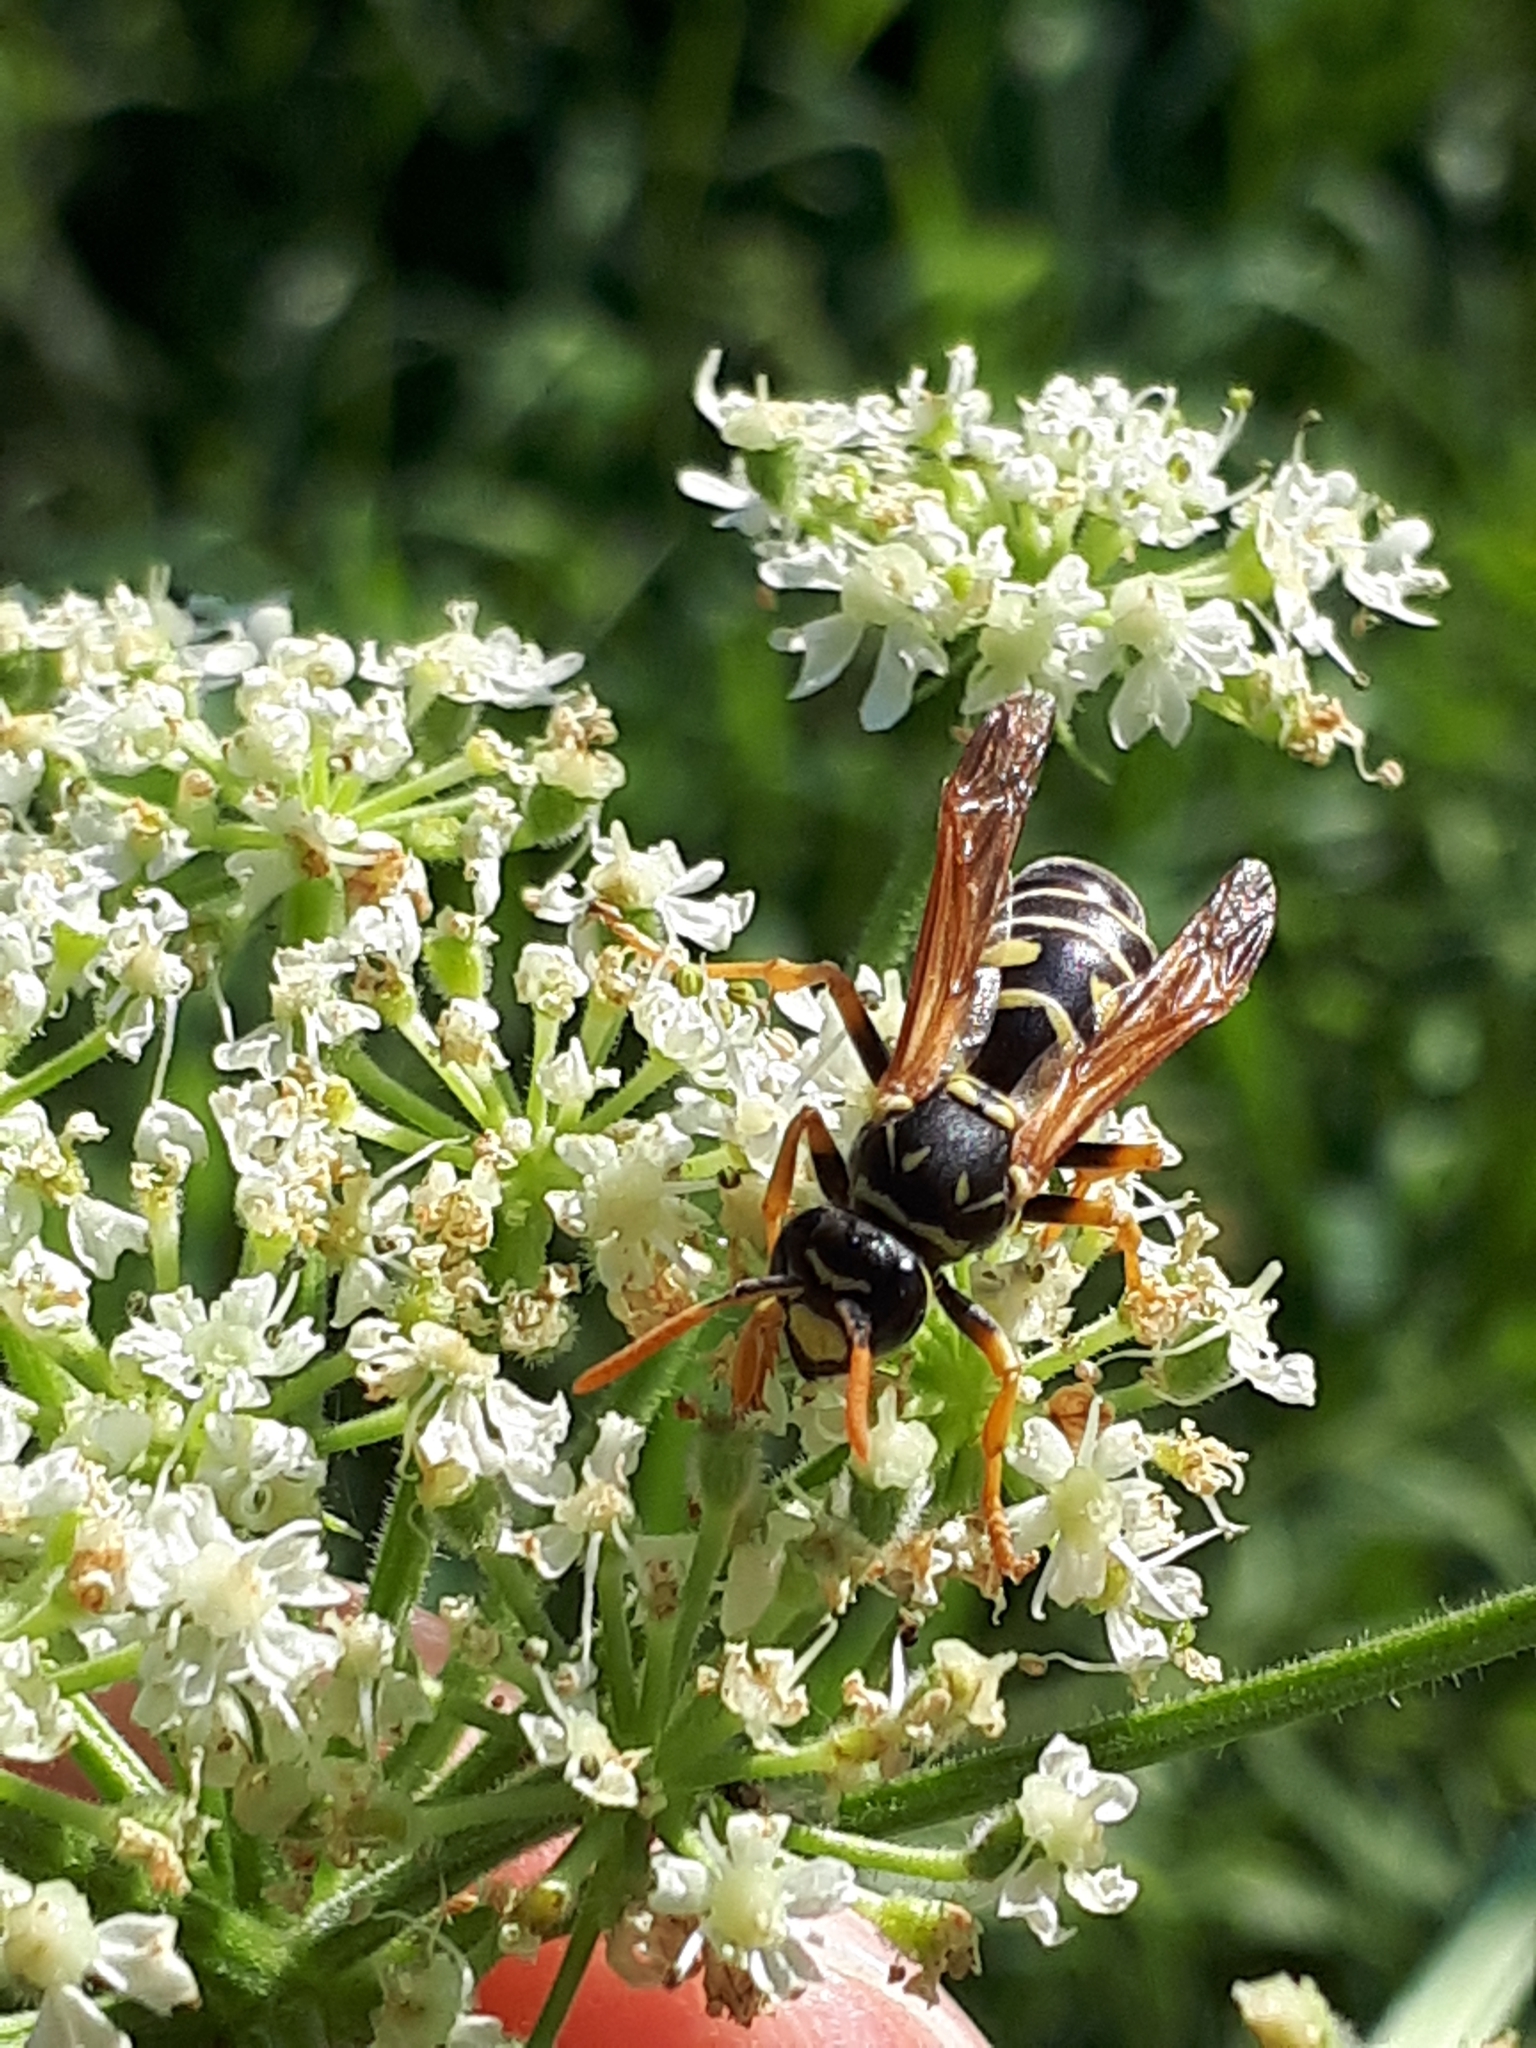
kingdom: Animalia
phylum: Arthropoda
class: Insecta
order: Hymenoptera
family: Eumenidae
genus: Polistes
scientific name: Polistes dominula
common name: Paper wasp
